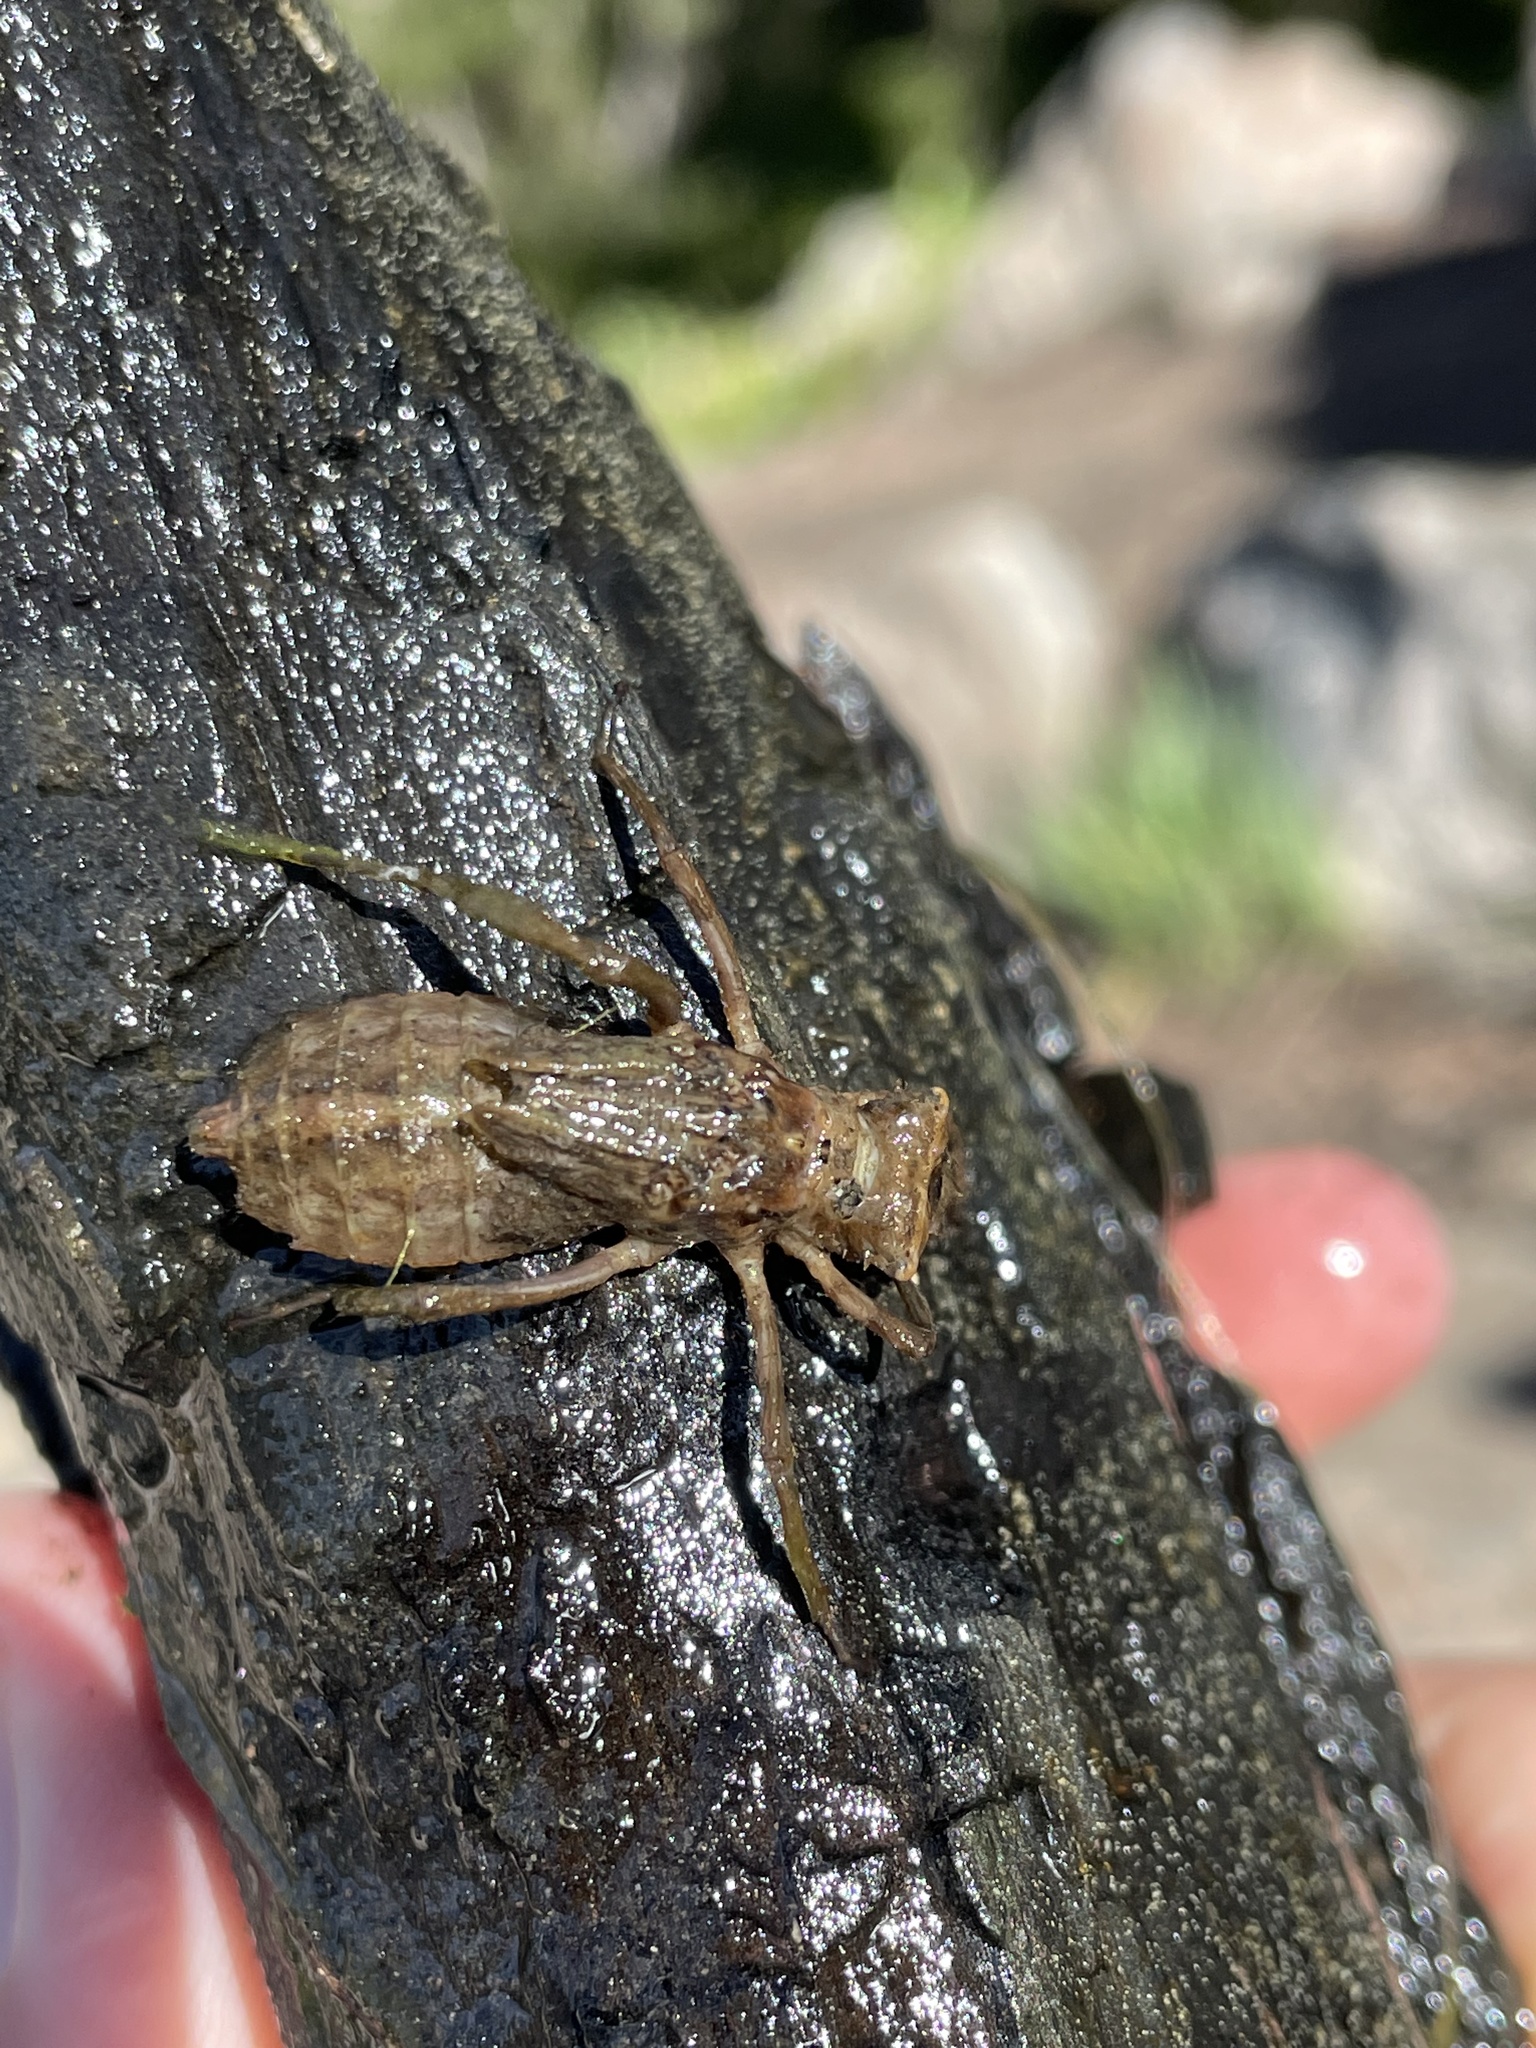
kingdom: Animalia
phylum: Arthropoda
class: Insecta
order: Odonata
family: Corduliidae
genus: Cordulia
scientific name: Cordulia shurtleffii
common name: American emerald
